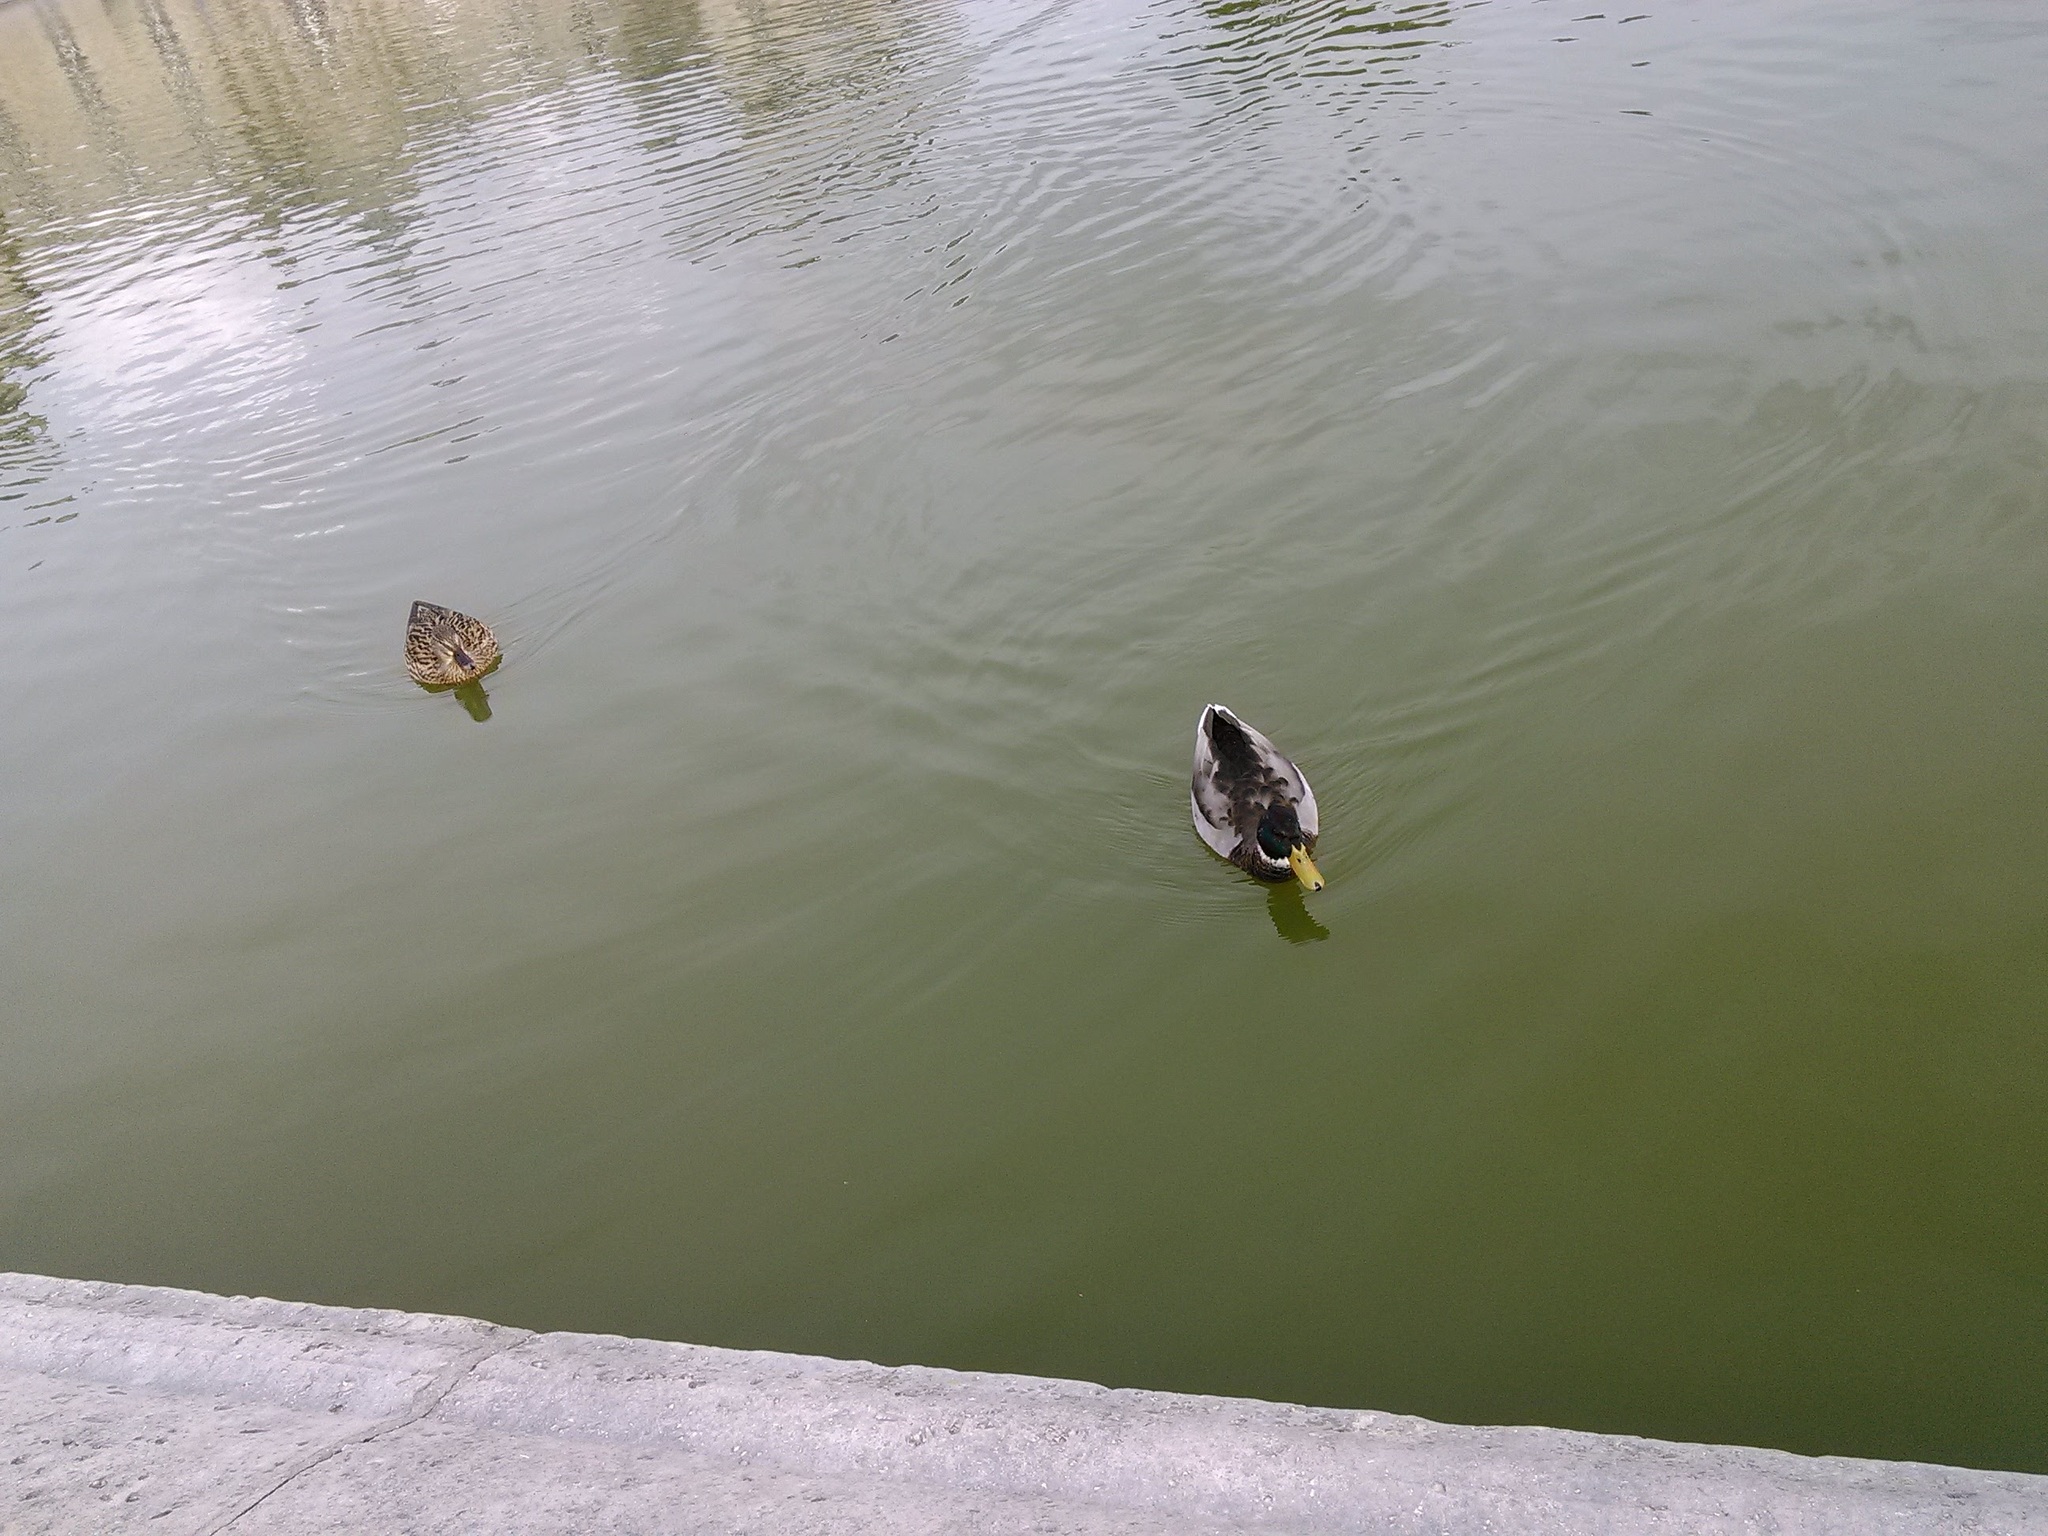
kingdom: Animalia
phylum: Chordata
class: Aves
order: Anseriformes
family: Anatidae
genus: Anas
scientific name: Anas platyrhynchos
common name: Mallard
